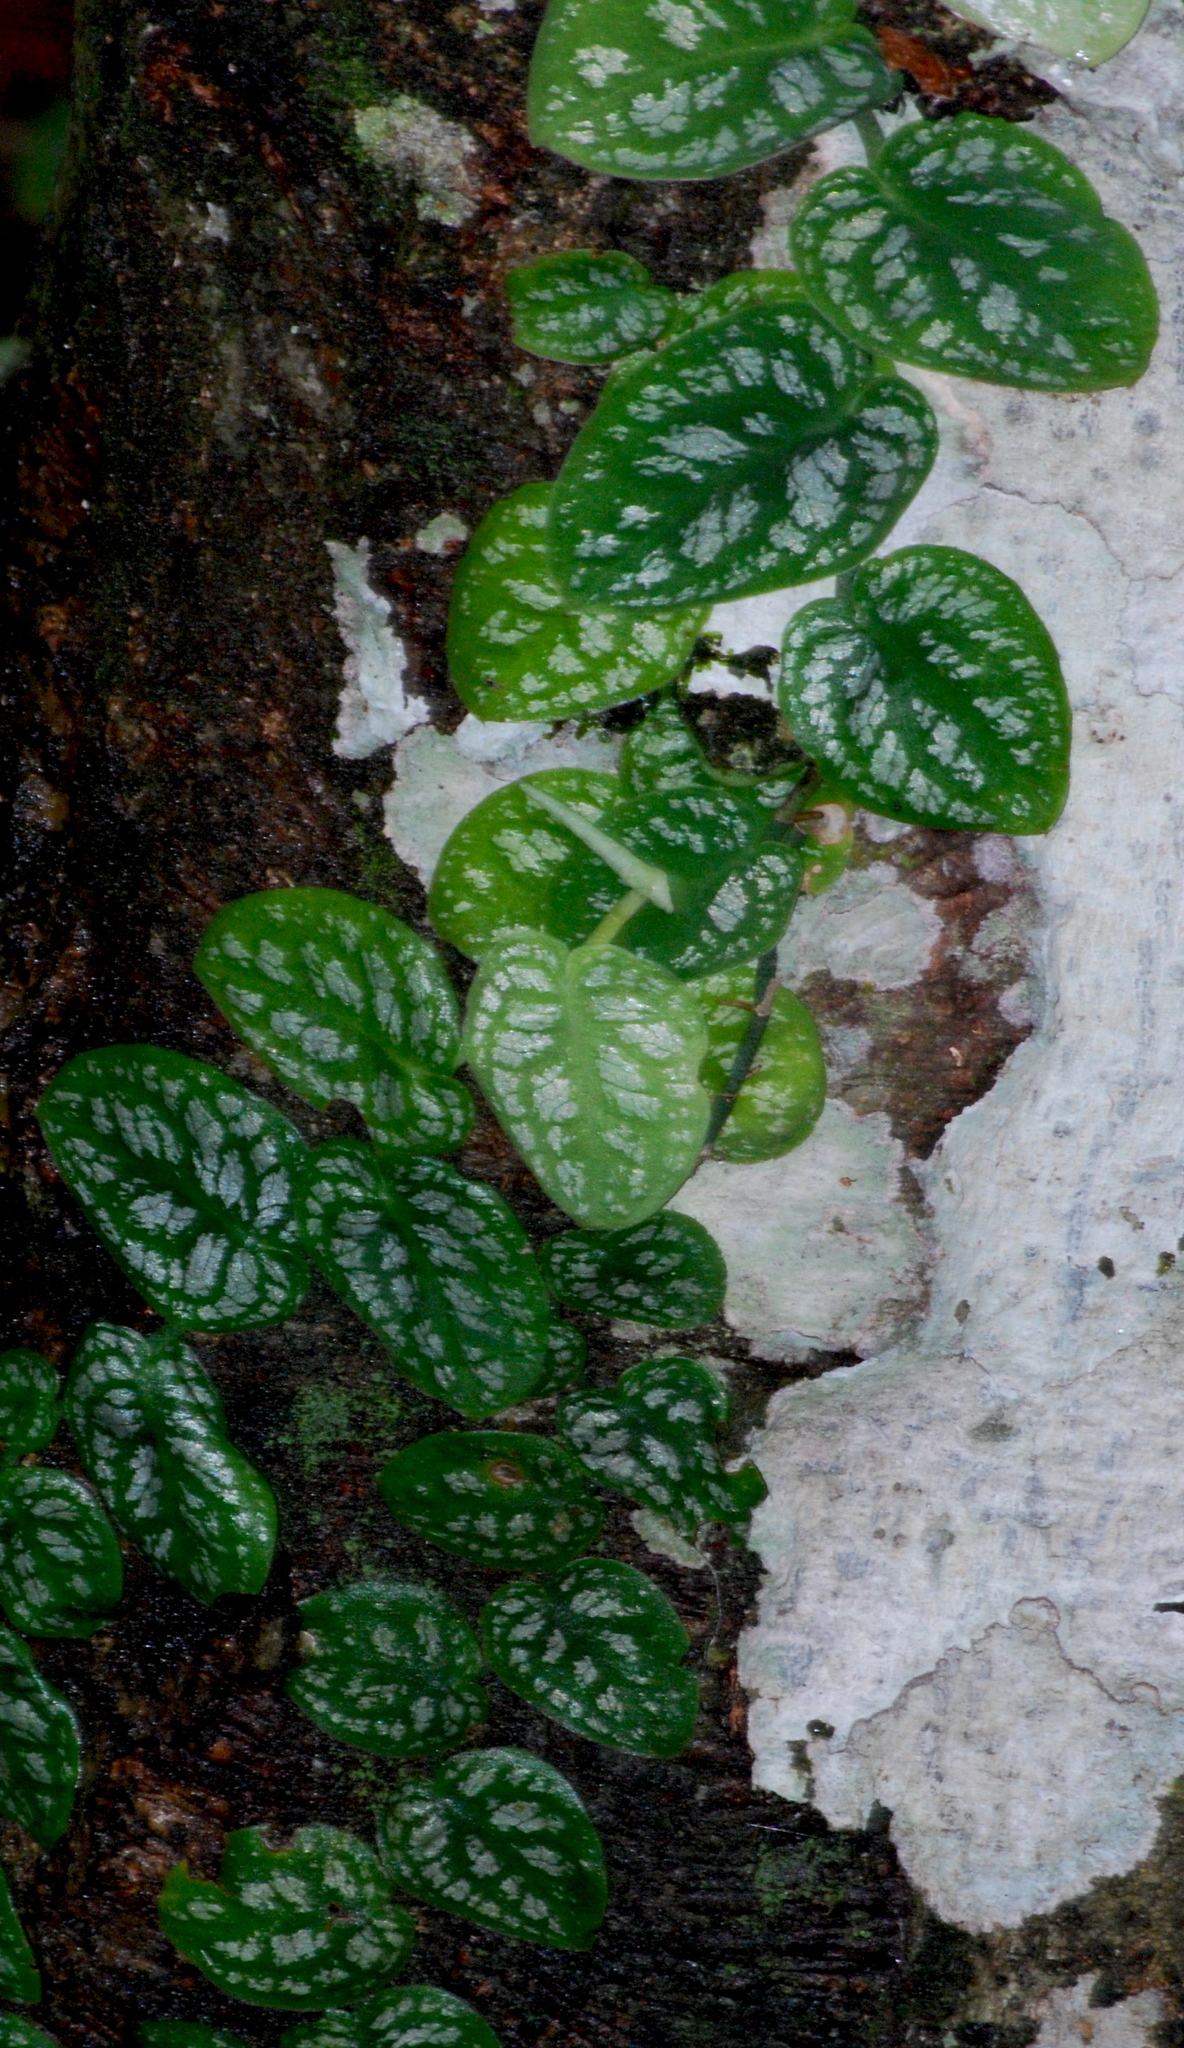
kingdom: Plantae
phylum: Tracheophyta
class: Liliopsida
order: Alismatales
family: Araceae
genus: Monstera
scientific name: Monstera dubia
